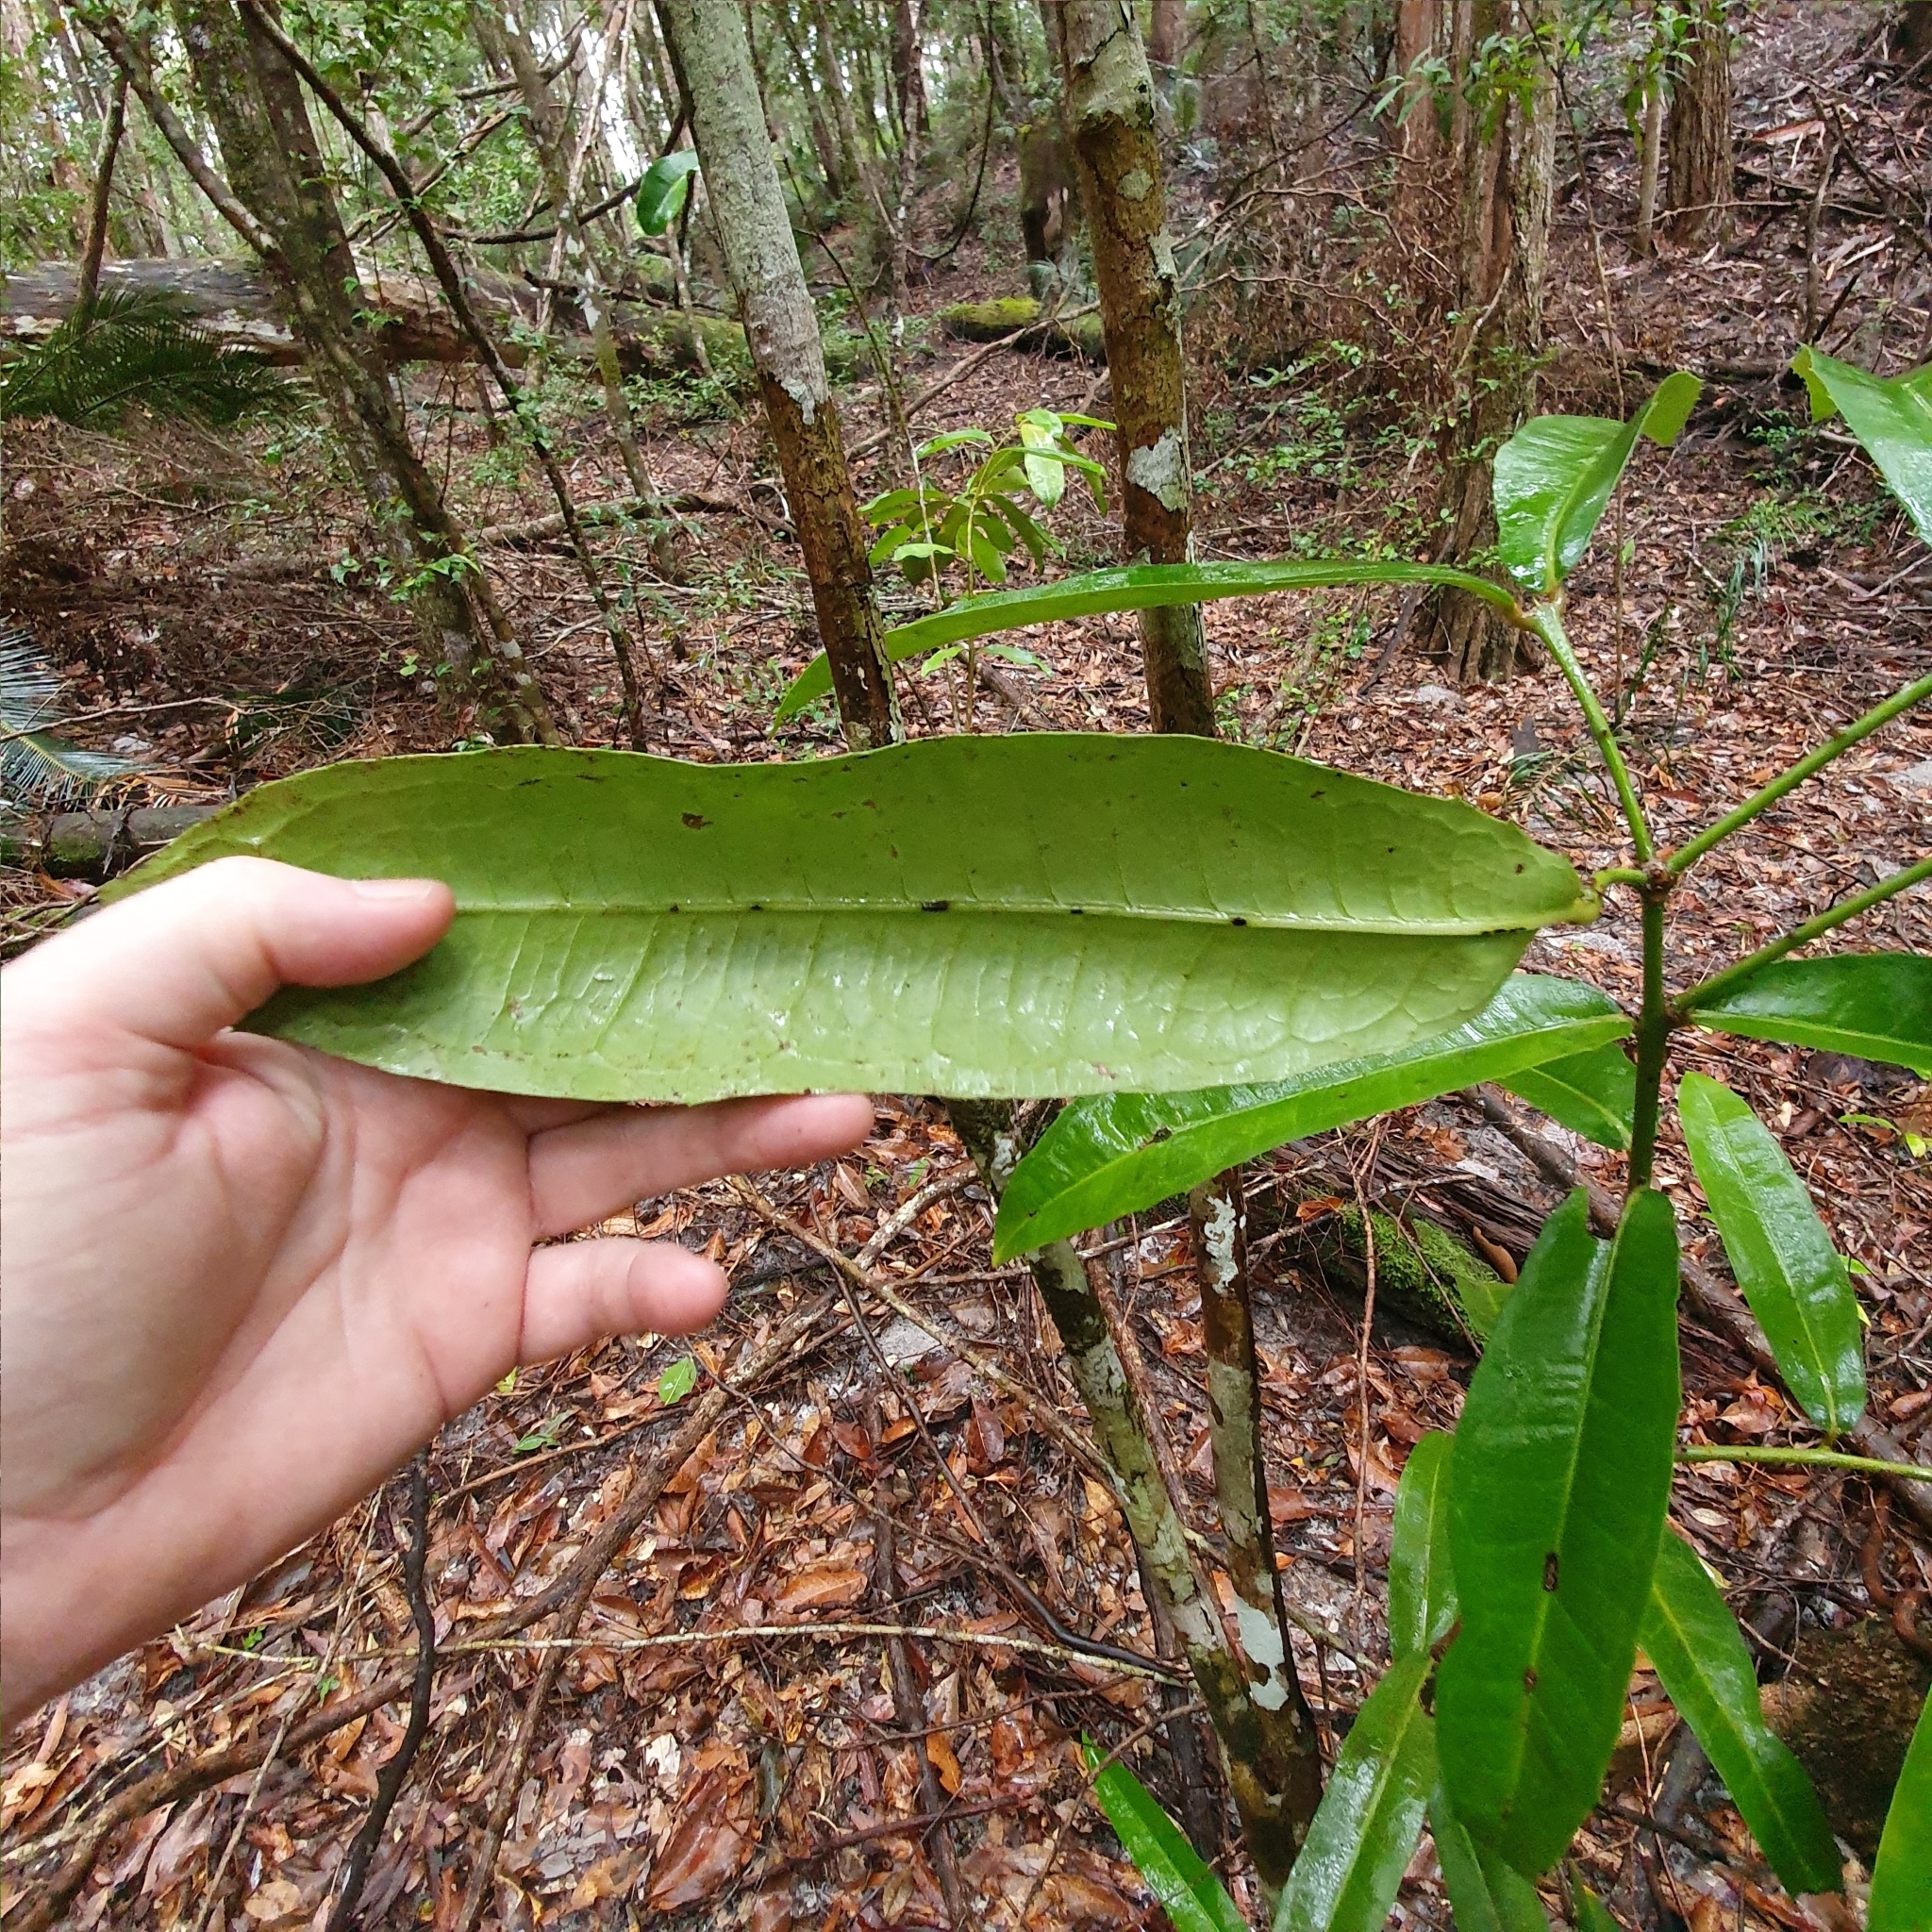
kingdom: Plantae
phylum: Tracheophyta
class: Magnoliopsida
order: Laurales
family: Monimiaceae
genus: Wilkiea
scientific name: Wilkiea macrophylla
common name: Large-leaved wilkiea
